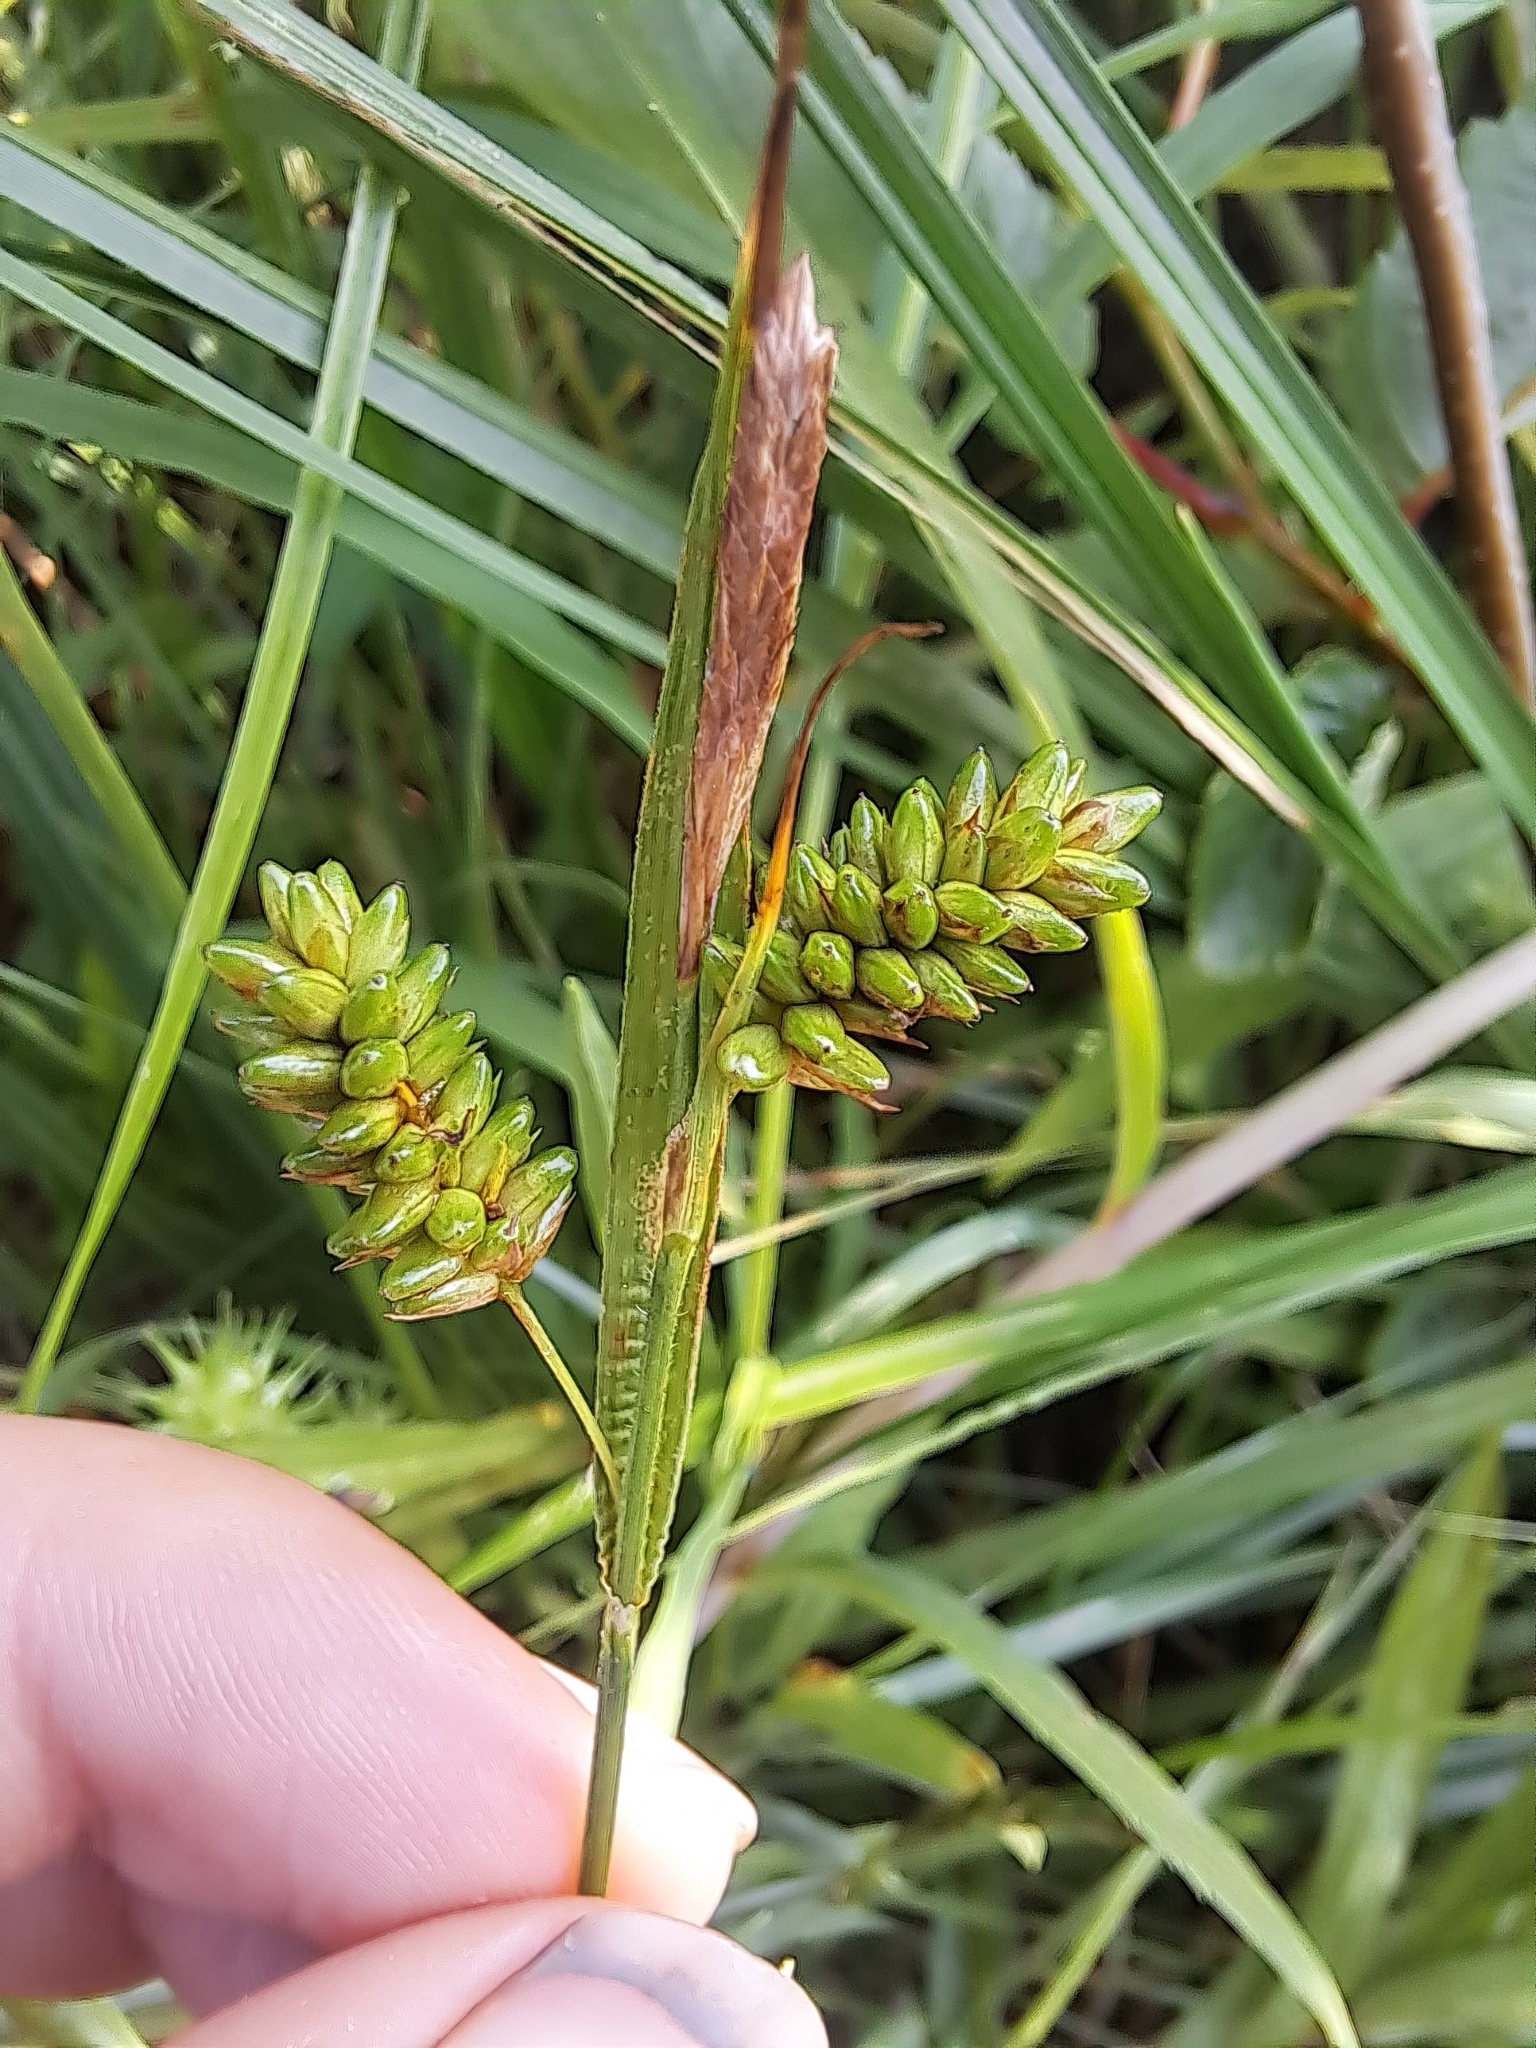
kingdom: Plantae
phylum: Tracheophyta
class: Liliopsida
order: Poales
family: Cyperaceae
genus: Carex
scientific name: Carex pallescens
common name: Pale sedge
